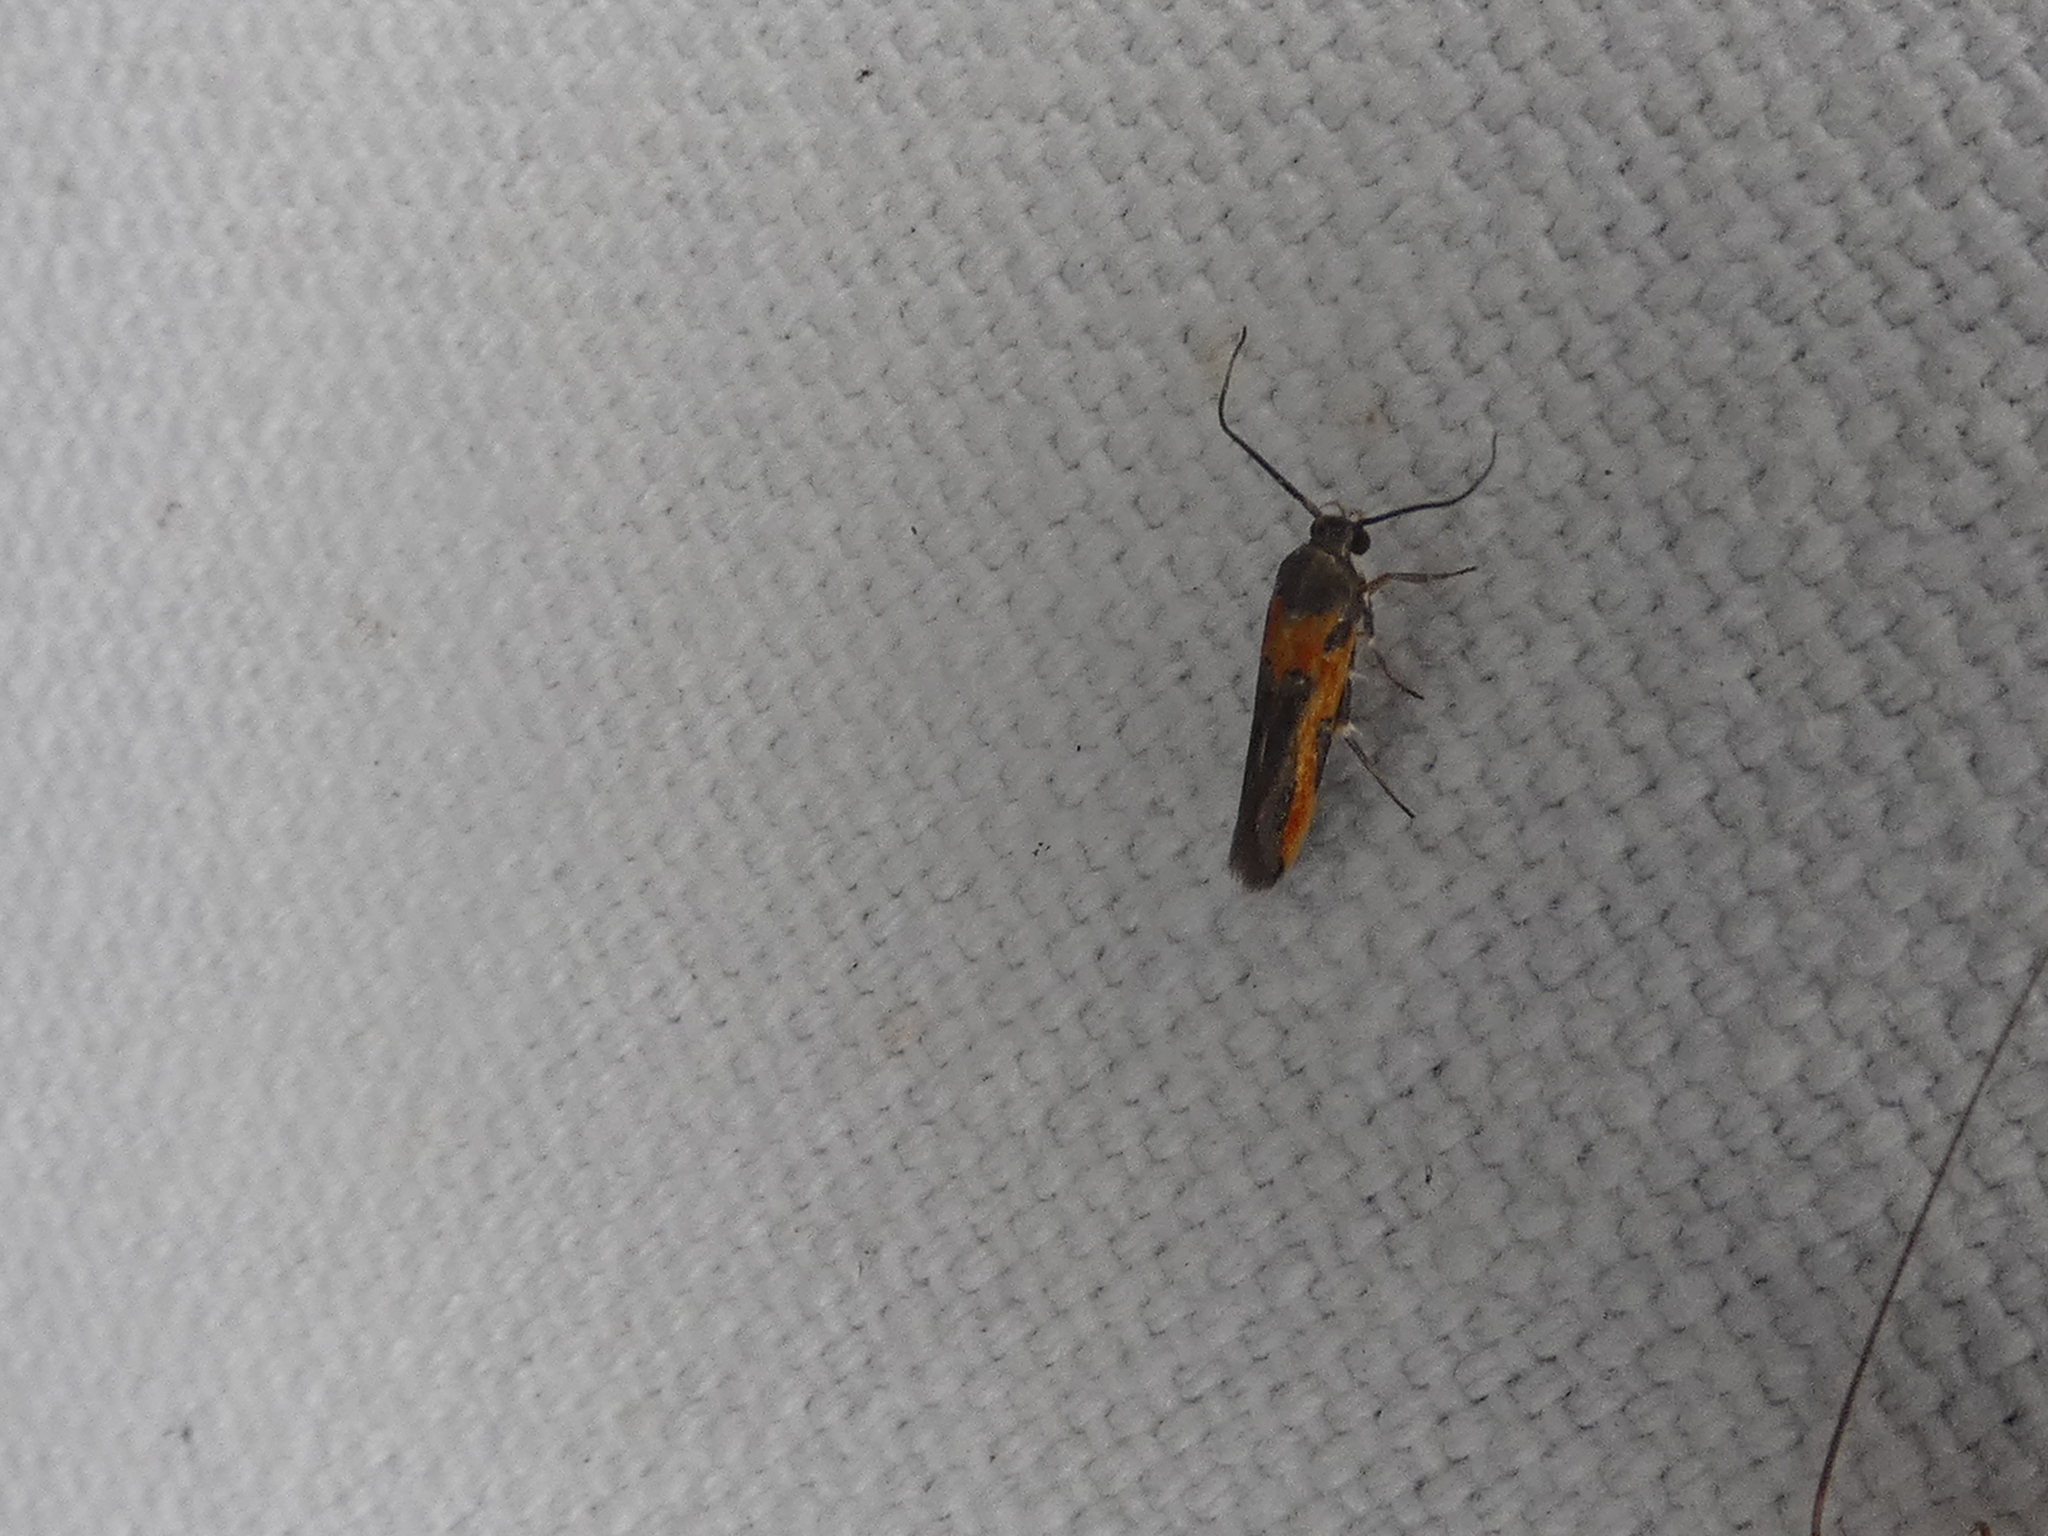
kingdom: Animalia
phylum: Arthropoda
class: Insecta
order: Lepidoptera
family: Cosmopterigidae
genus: Euclemensia
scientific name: Euclemensia bassettella
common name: Kermes scale moth
